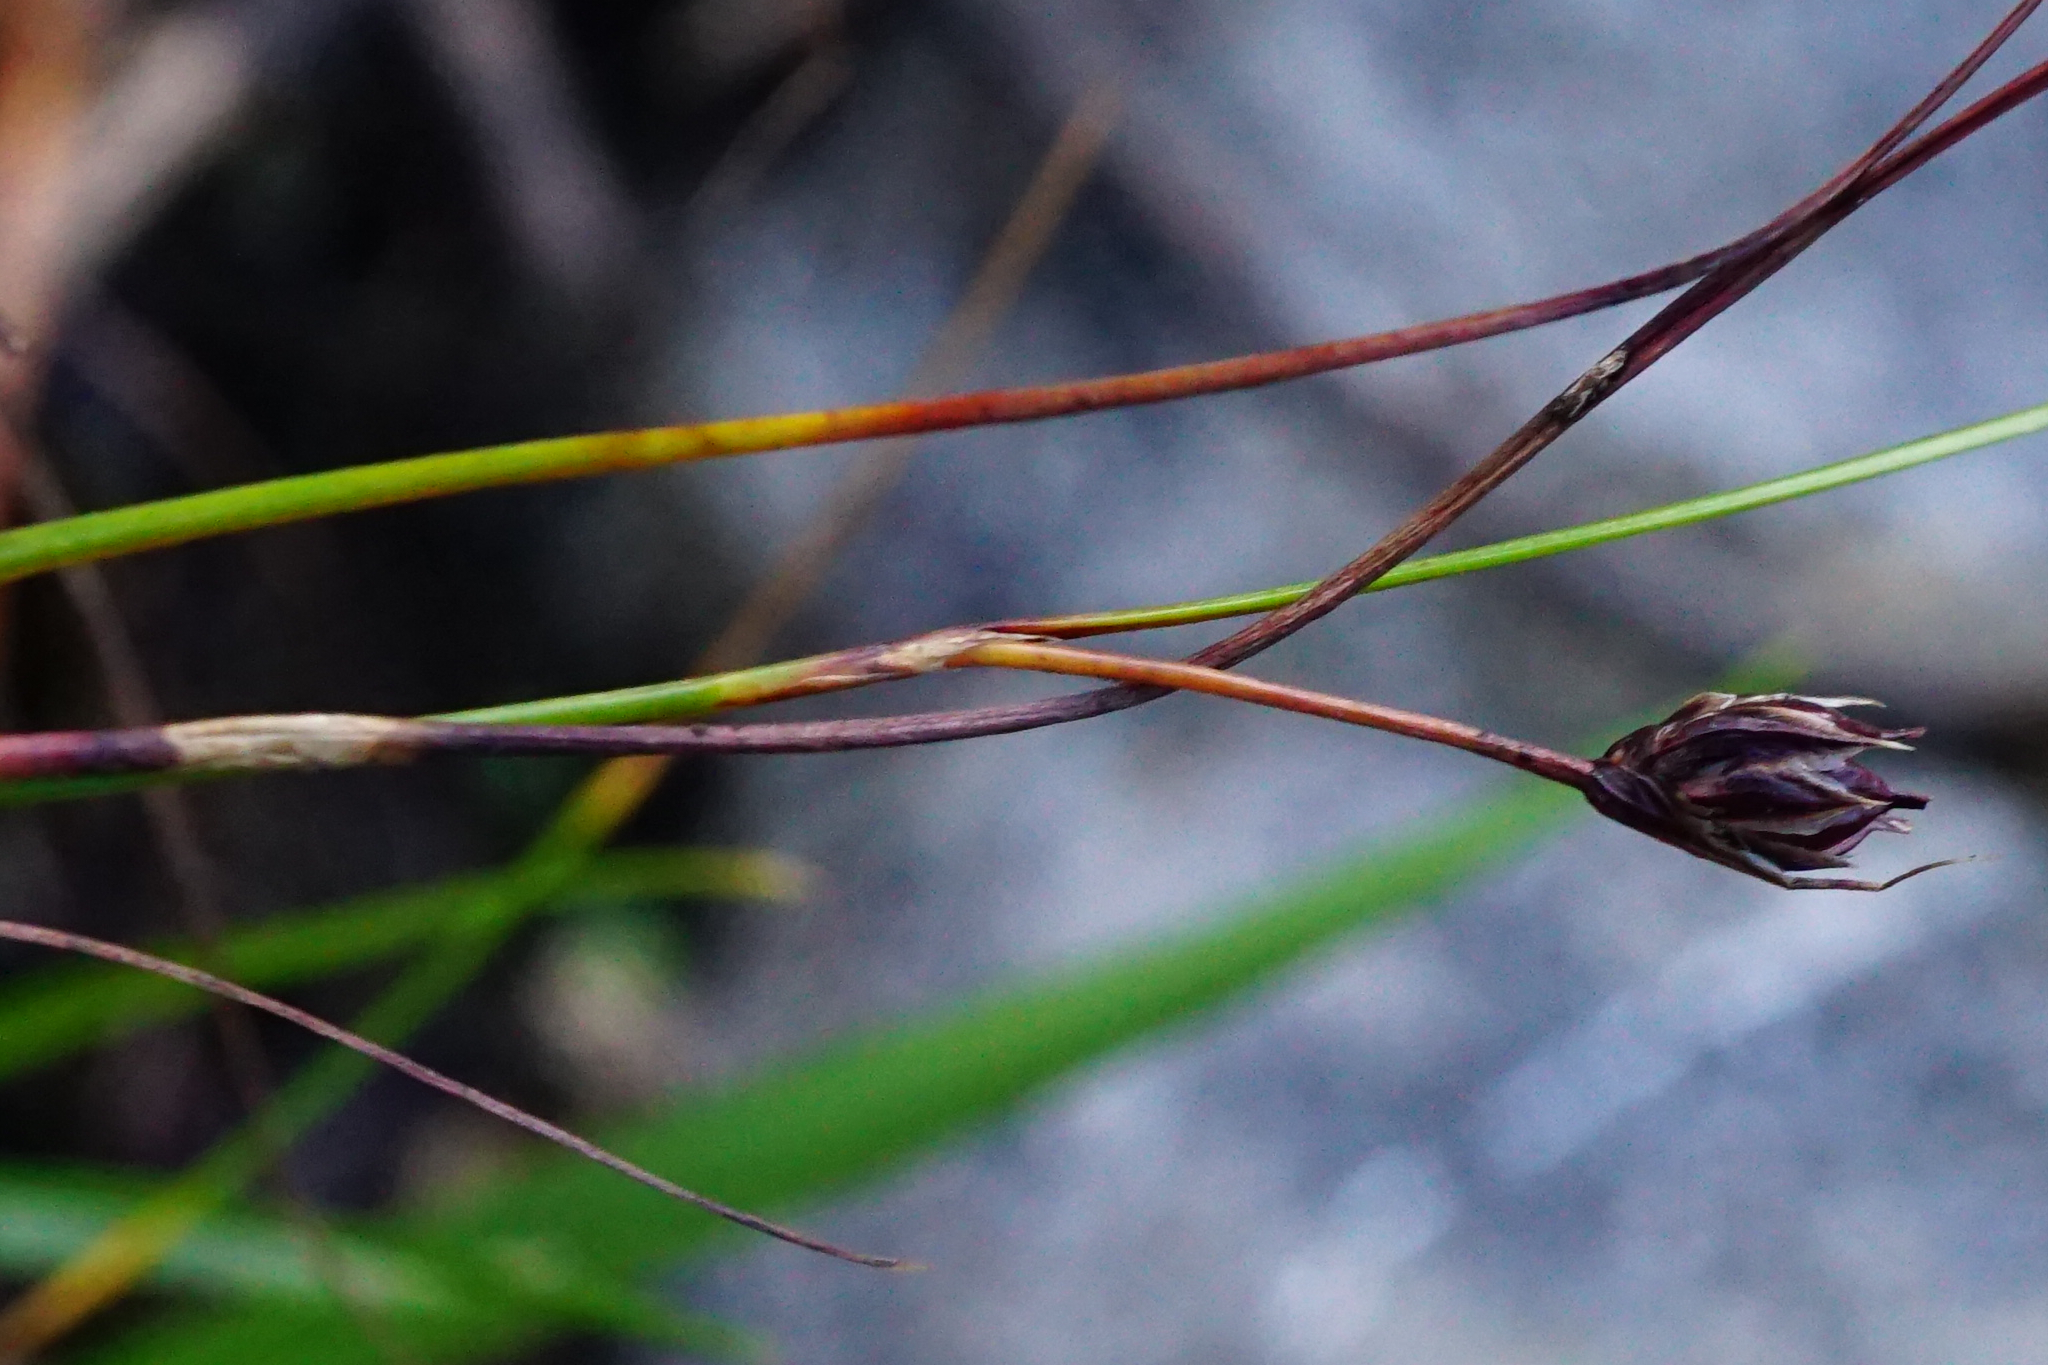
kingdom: Plantae
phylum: Tracheophyta
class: Liliopsida
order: Poales
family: Juncaceae
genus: Oreojuncus
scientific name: Oreojuncus monanthos
